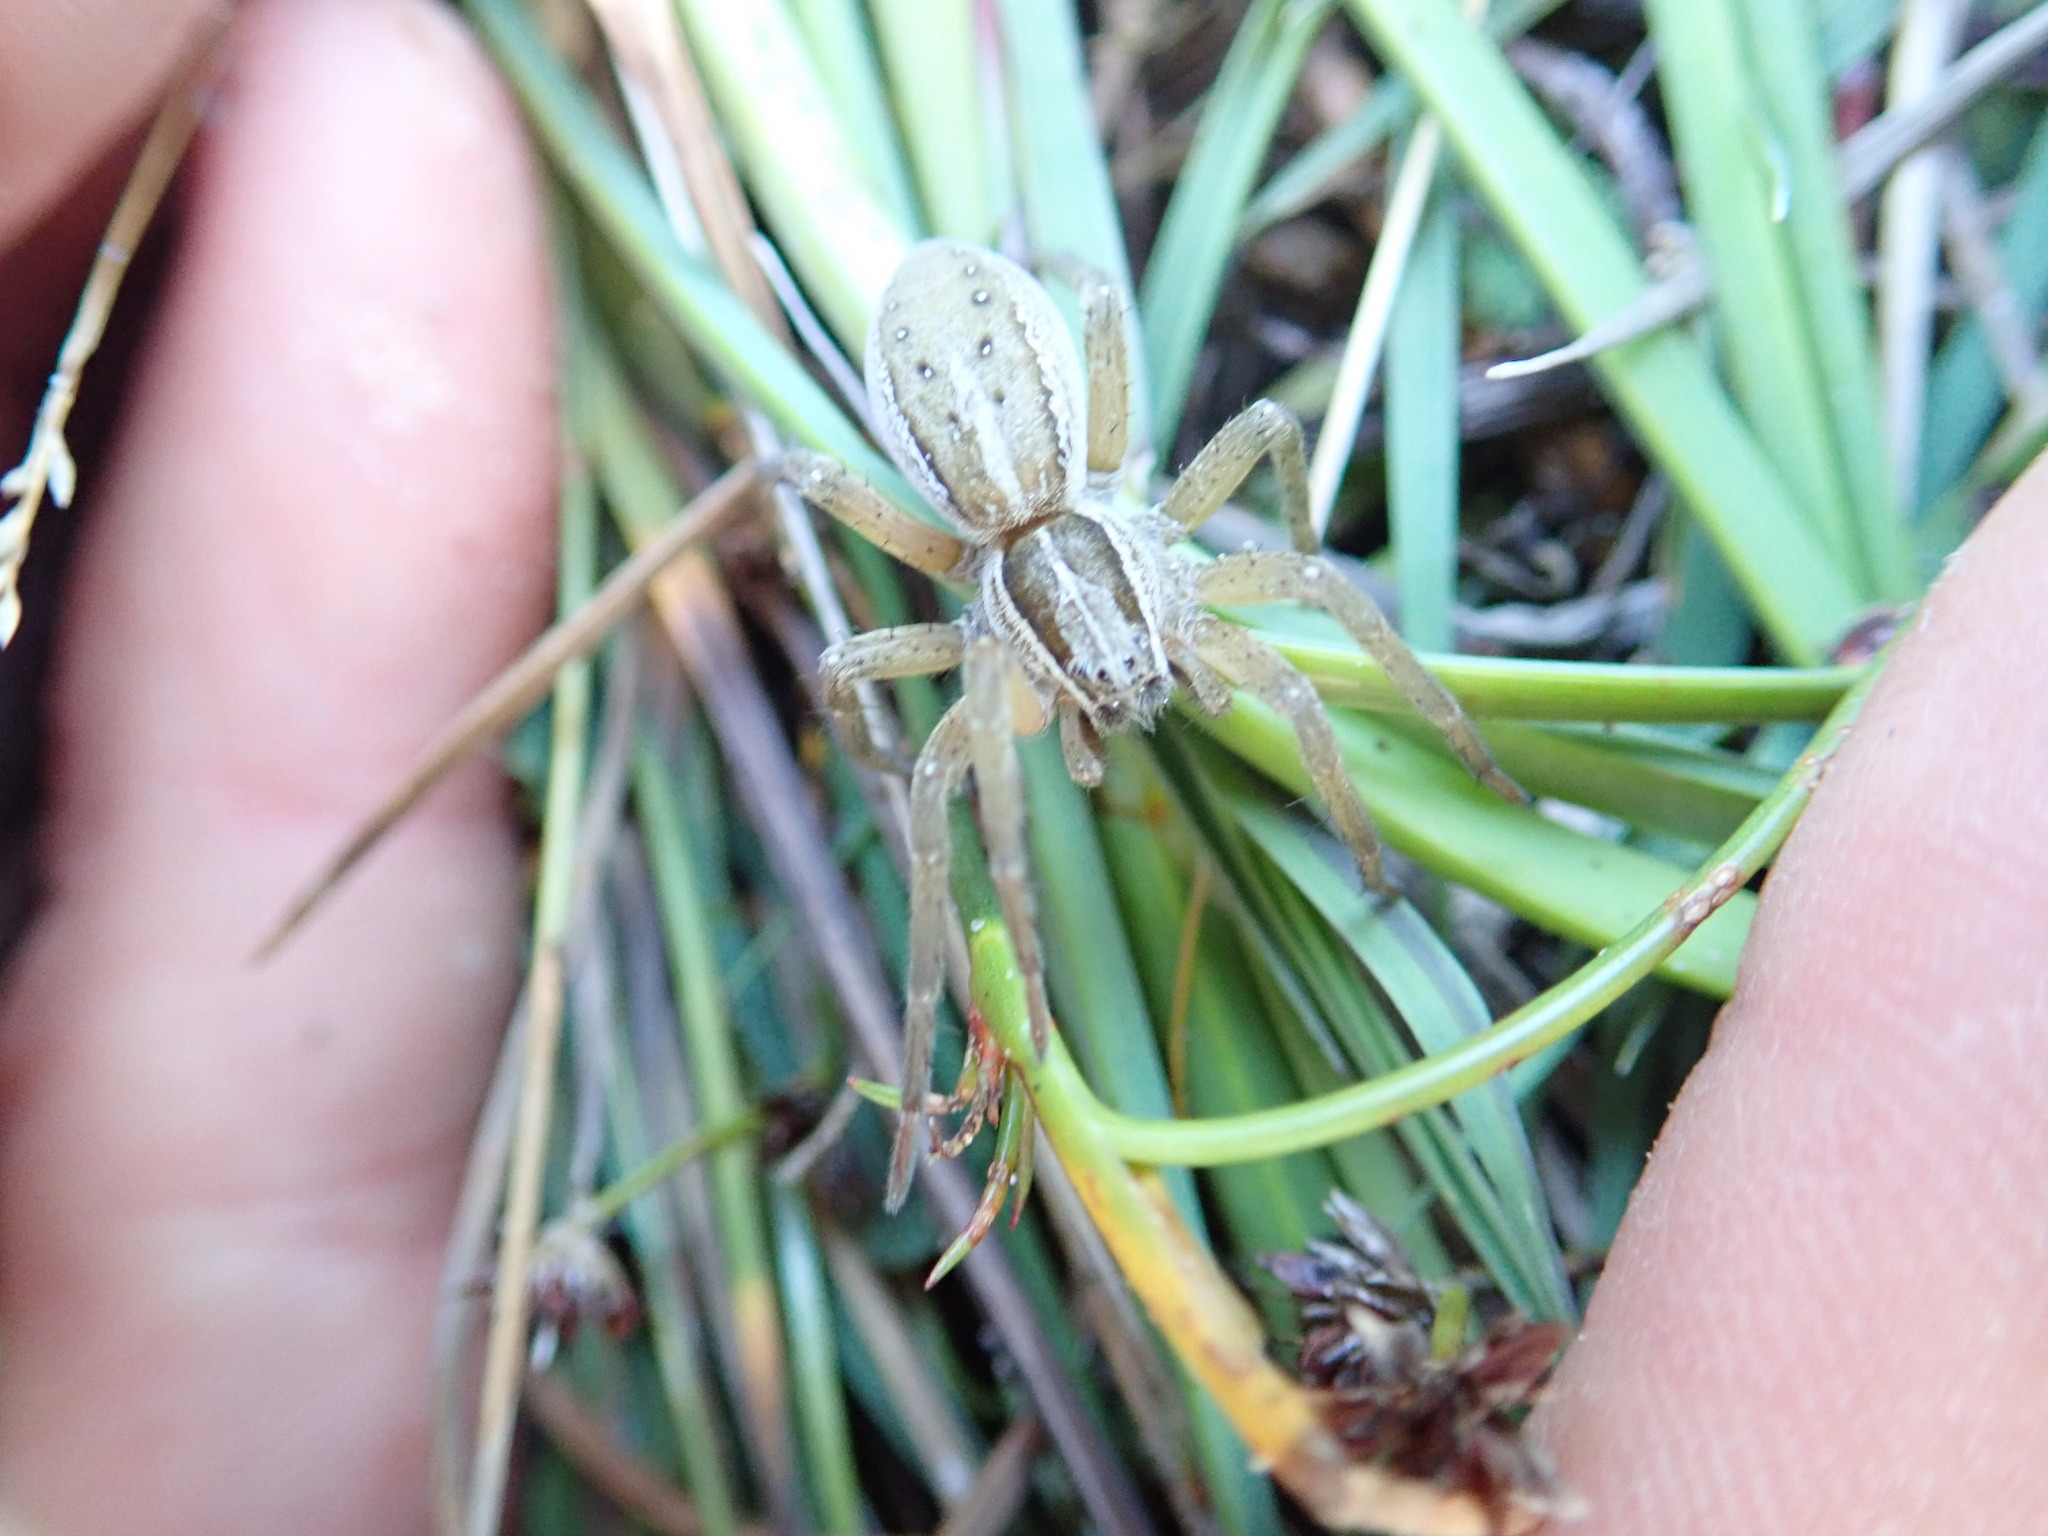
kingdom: Animalia
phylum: Arthropoda
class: Arachnida
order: Araneae
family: Pisauridae
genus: Dolomedes
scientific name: Dolomedes minor
